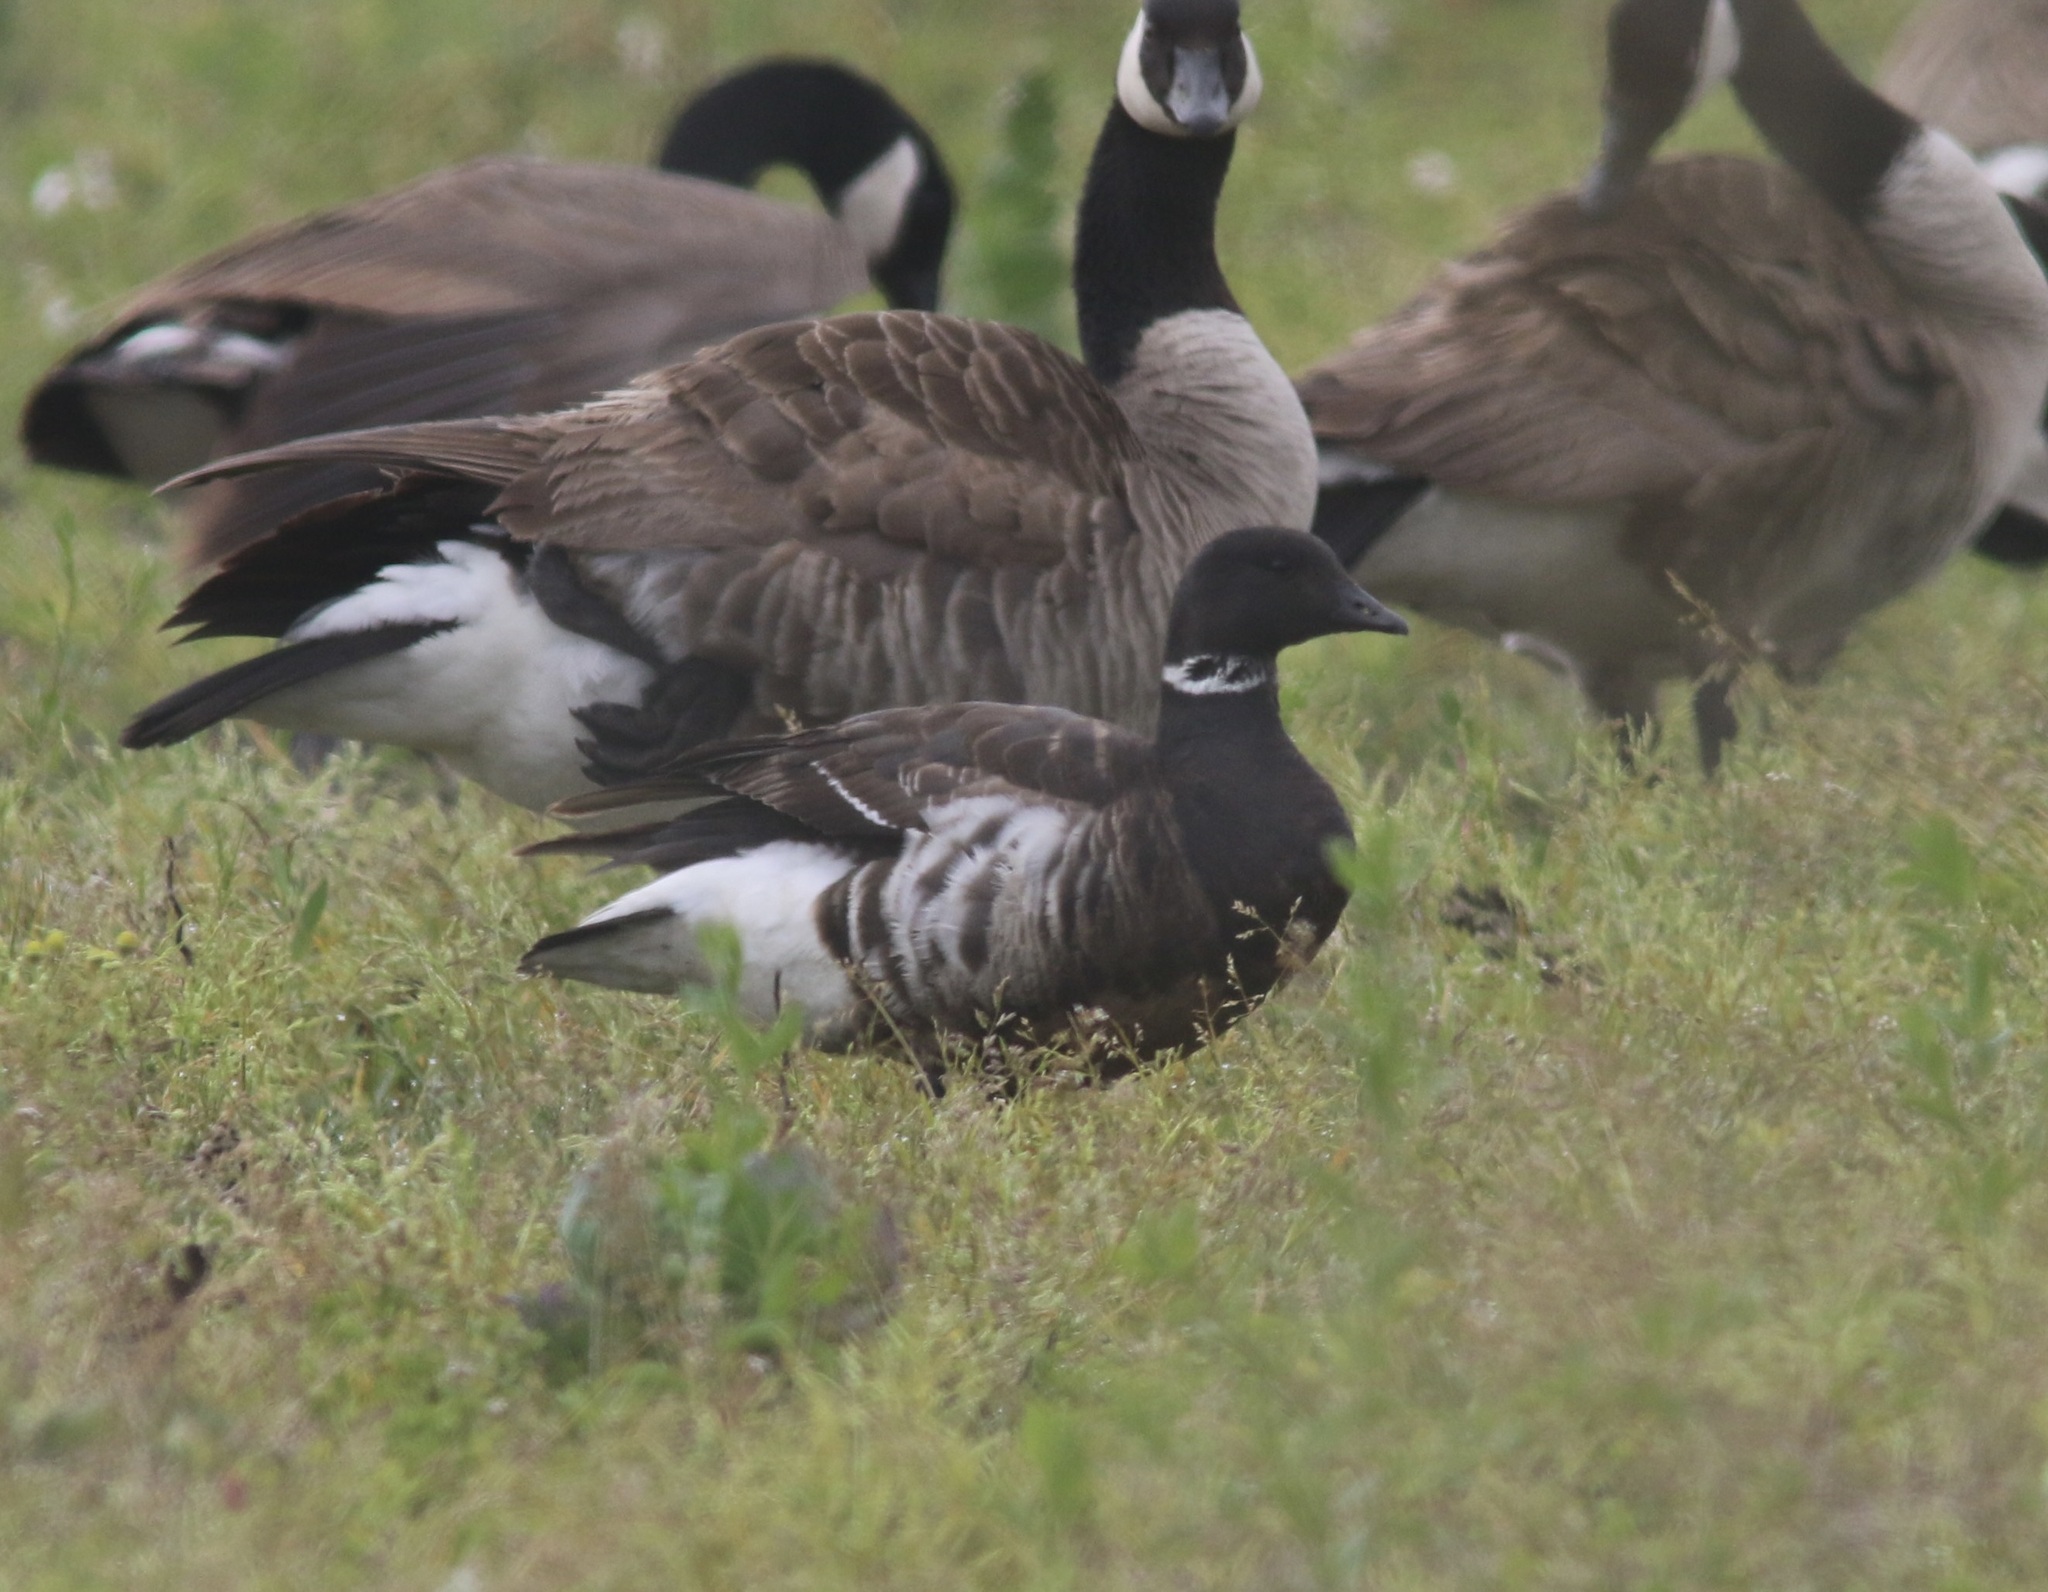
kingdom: Animalia
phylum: Chordata
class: Aves
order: Anseriformes
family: Anatidae
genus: Branta
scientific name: Branta bernicla
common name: Brant goose
